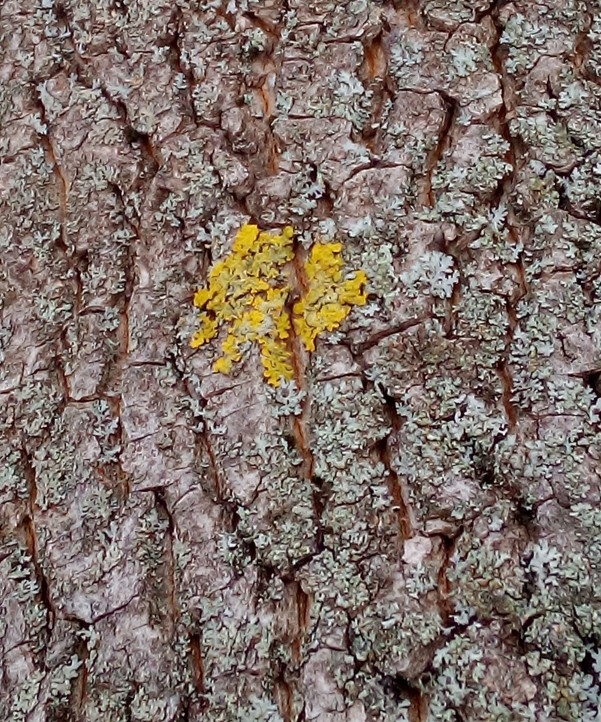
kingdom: Fungi
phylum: Ascomycota
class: Lecanoromycetes
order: Teloschistales
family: Teloschistaceae
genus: Xanthoria
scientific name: Xanthoria parietina
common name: Common orange lichen
